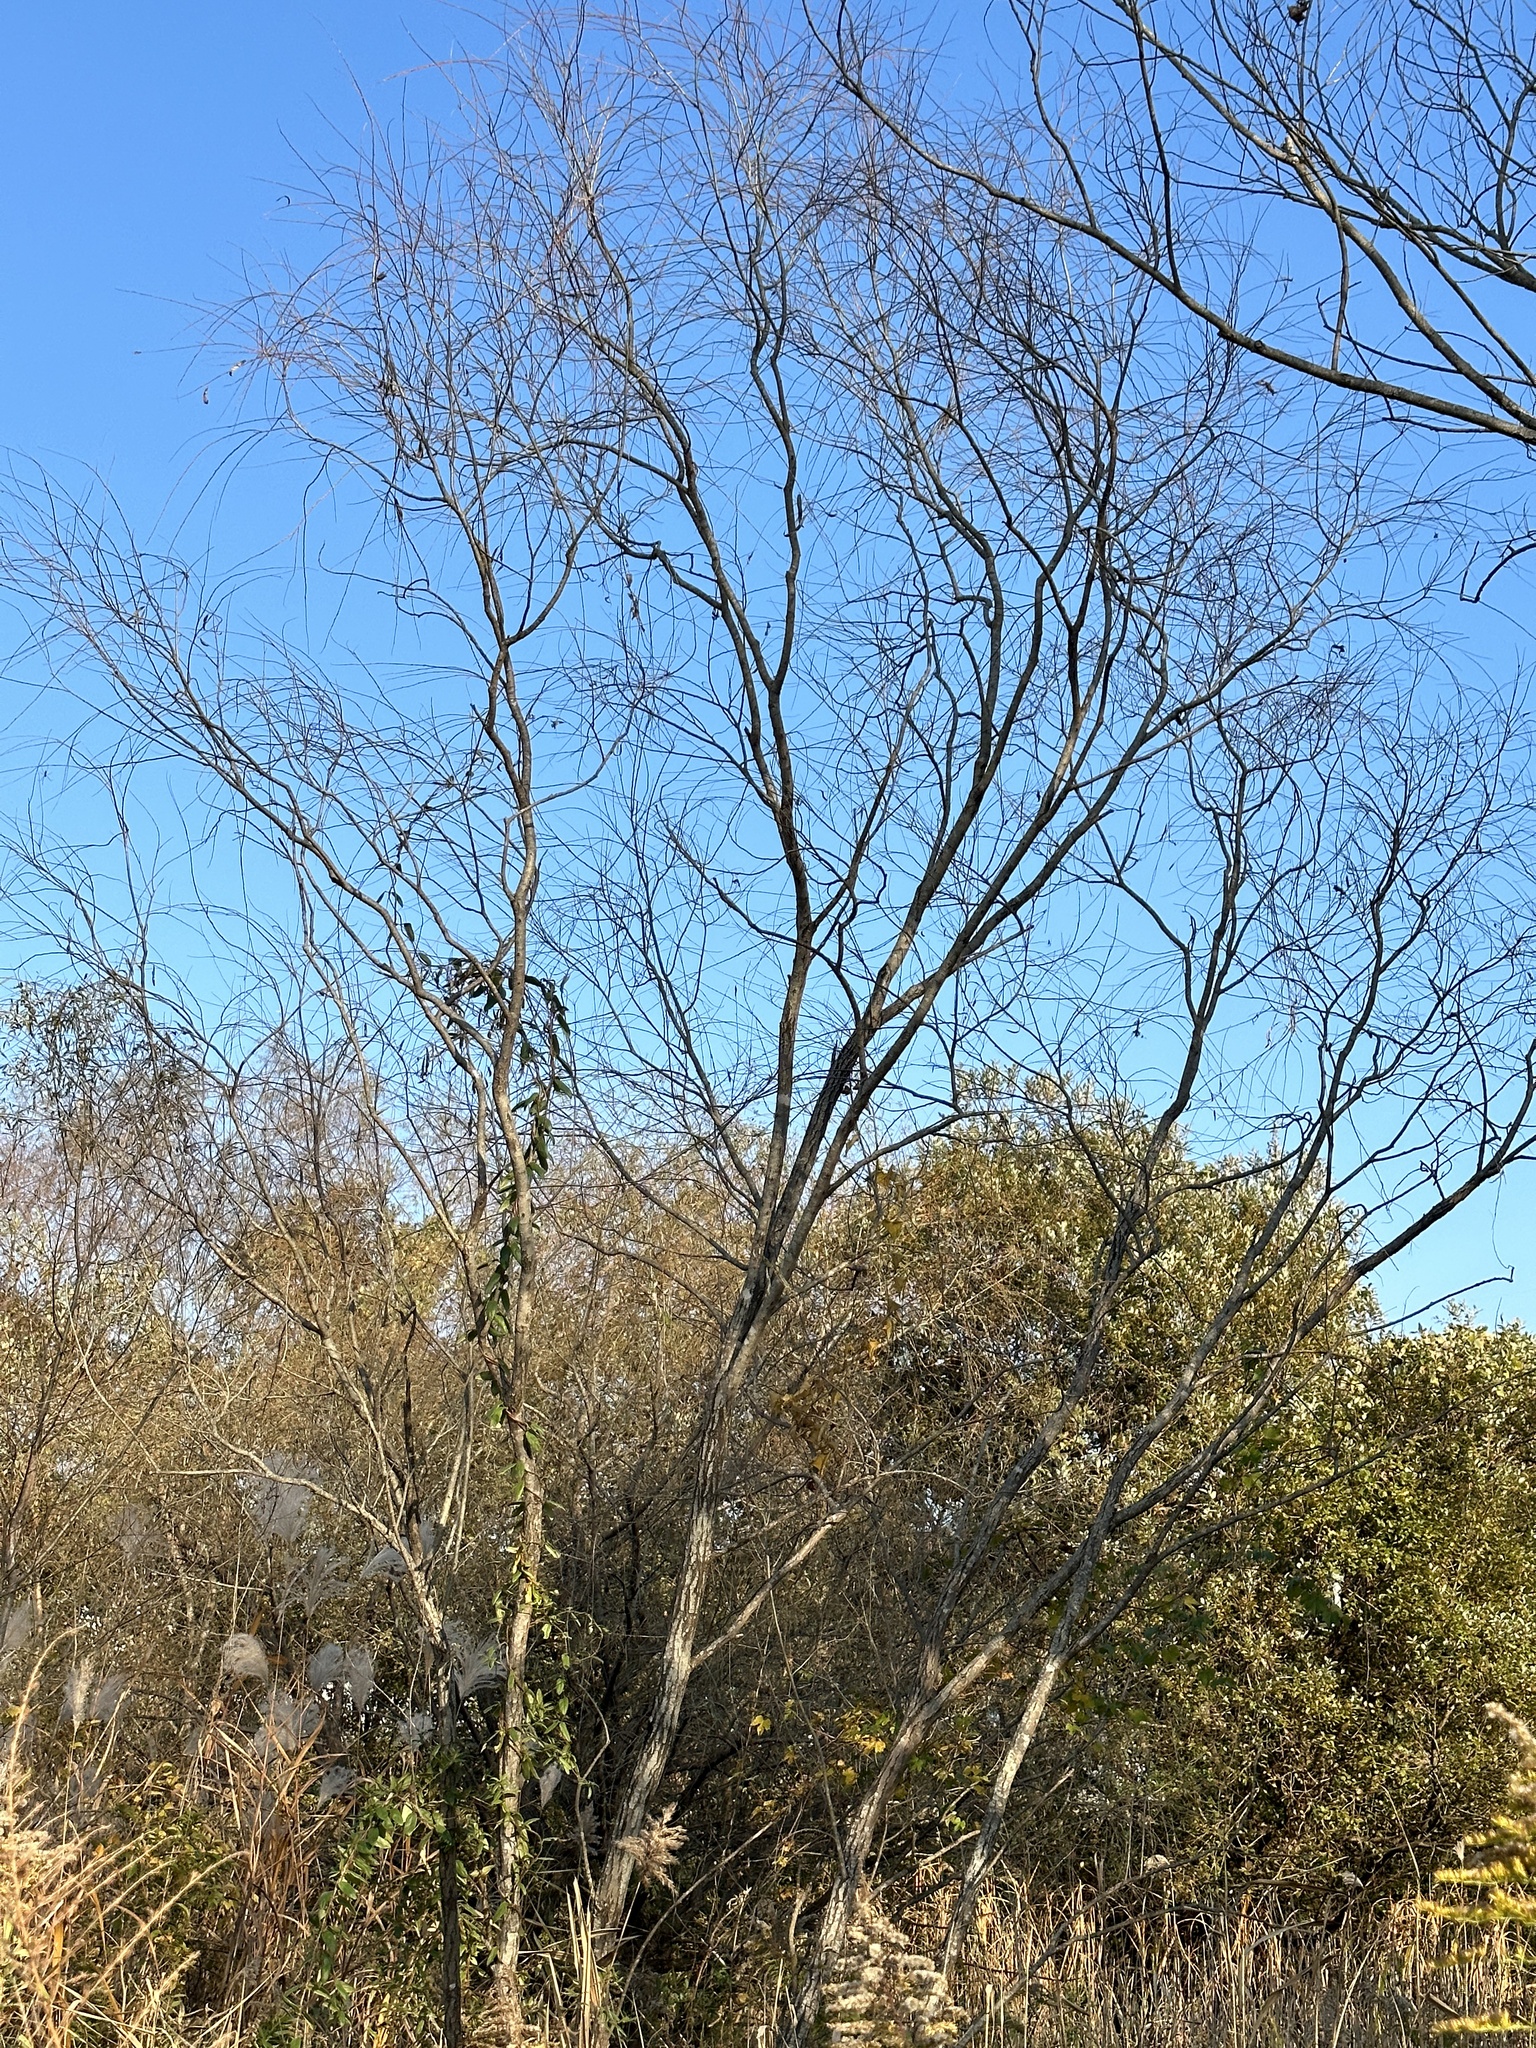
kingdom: Animalia
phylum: Chordata
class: Aves
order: Passeriformes
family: Paridae
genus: Parus
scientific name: Parus minor
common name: Japanese tit
